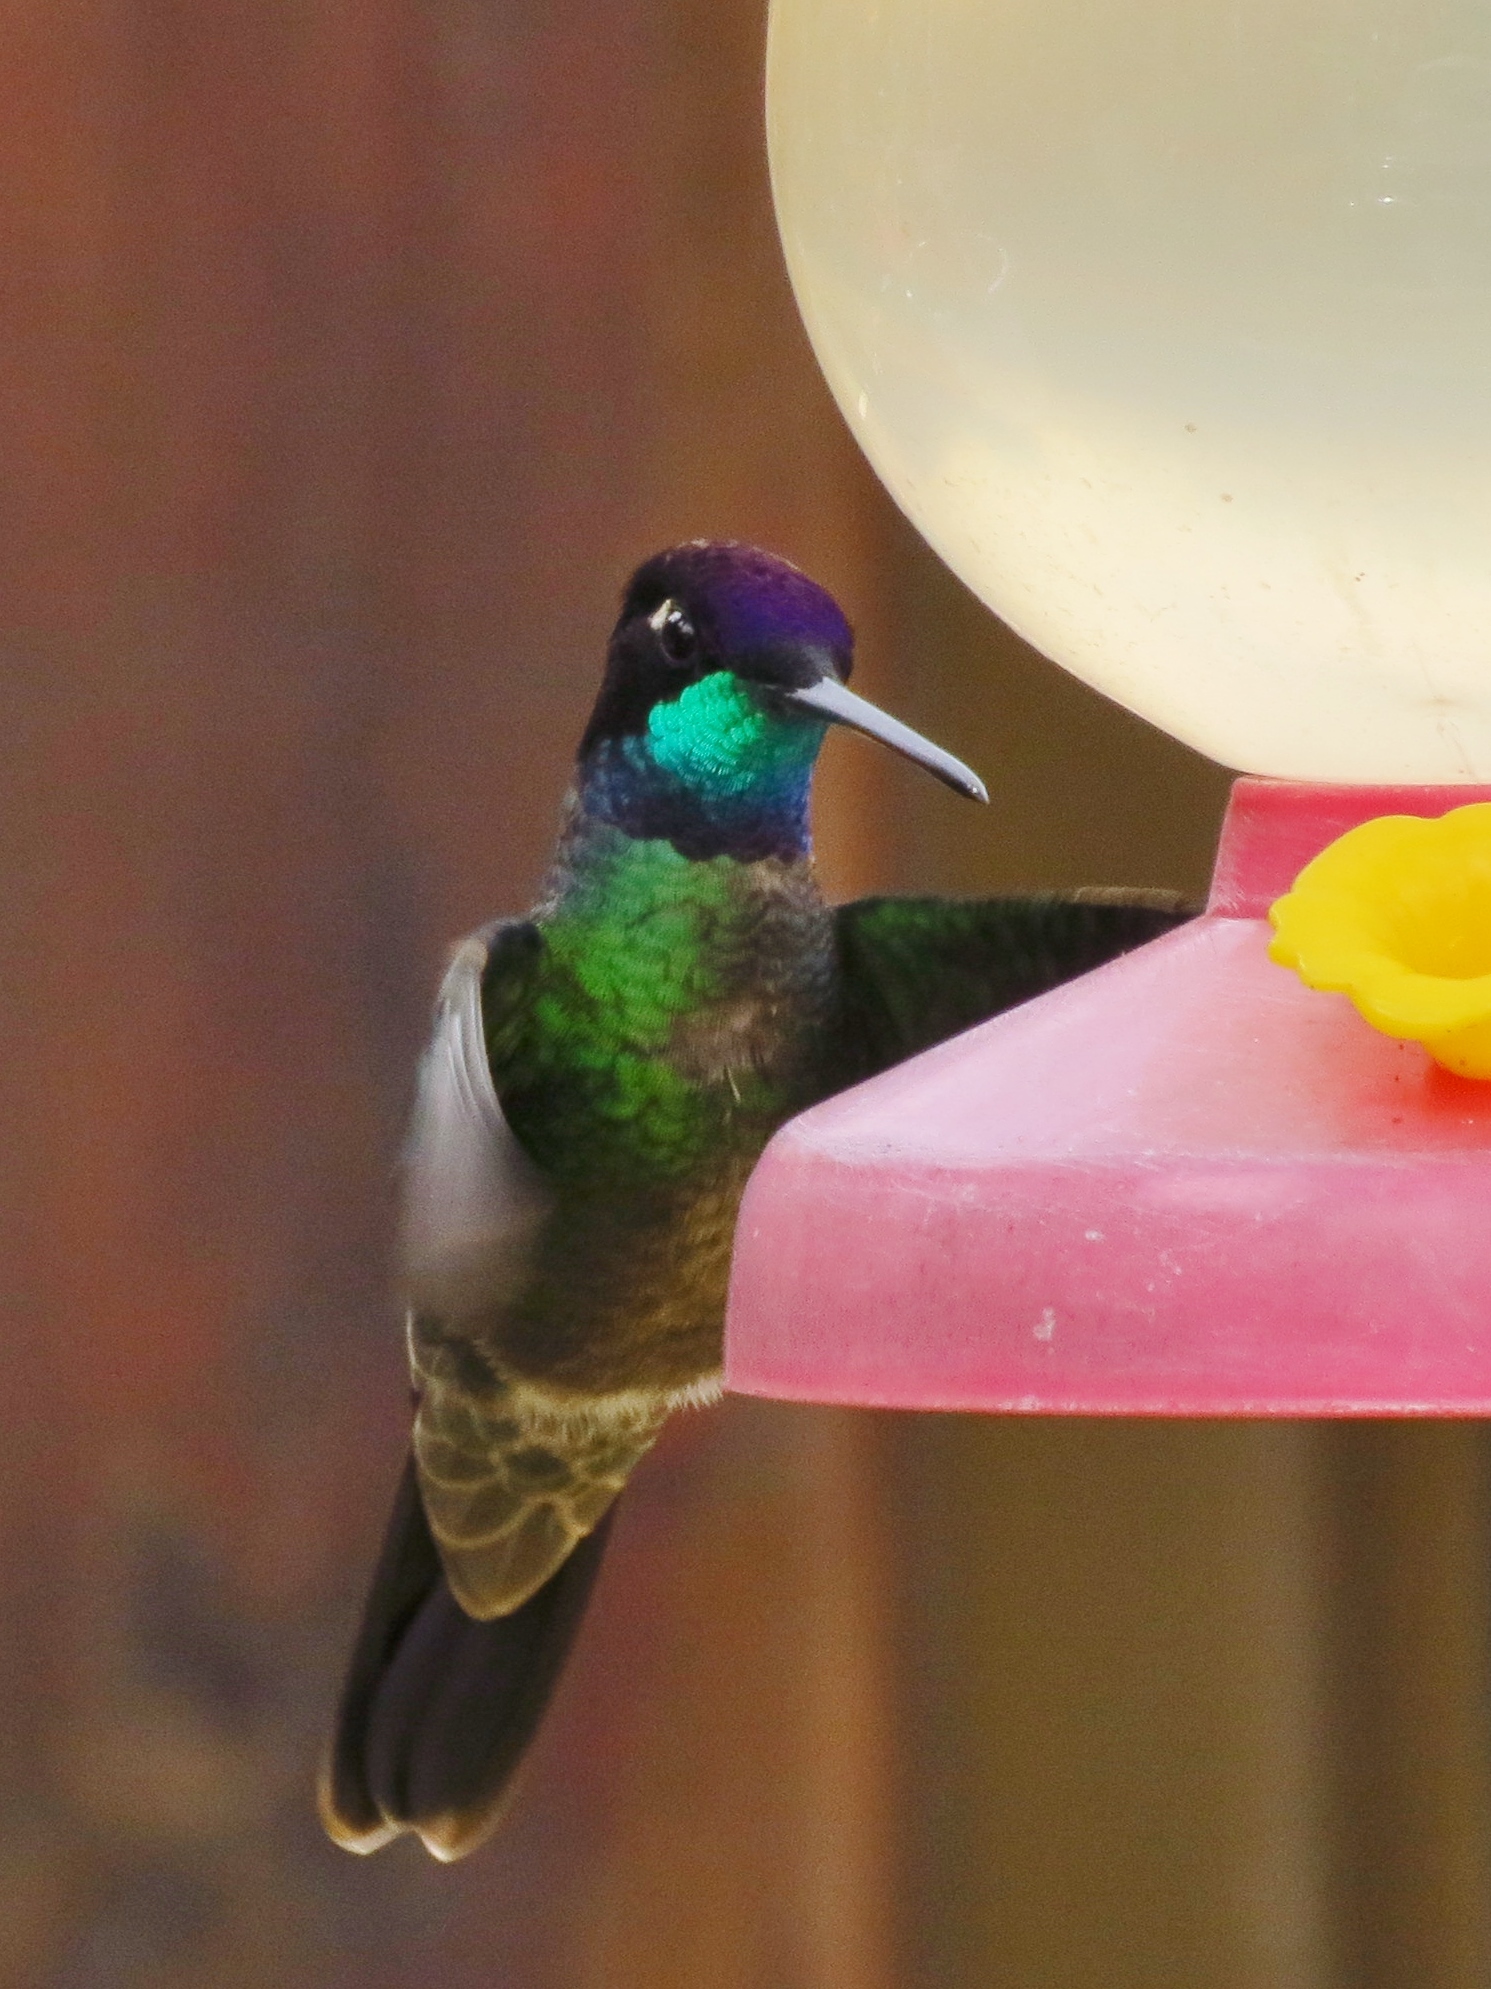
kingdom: Animalia
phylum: Chordata
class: Aves
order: Apodiformes
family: Trochilidae
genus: Eugenes
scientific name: Eugenes spectabilis
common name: Talamanca hummingbird
